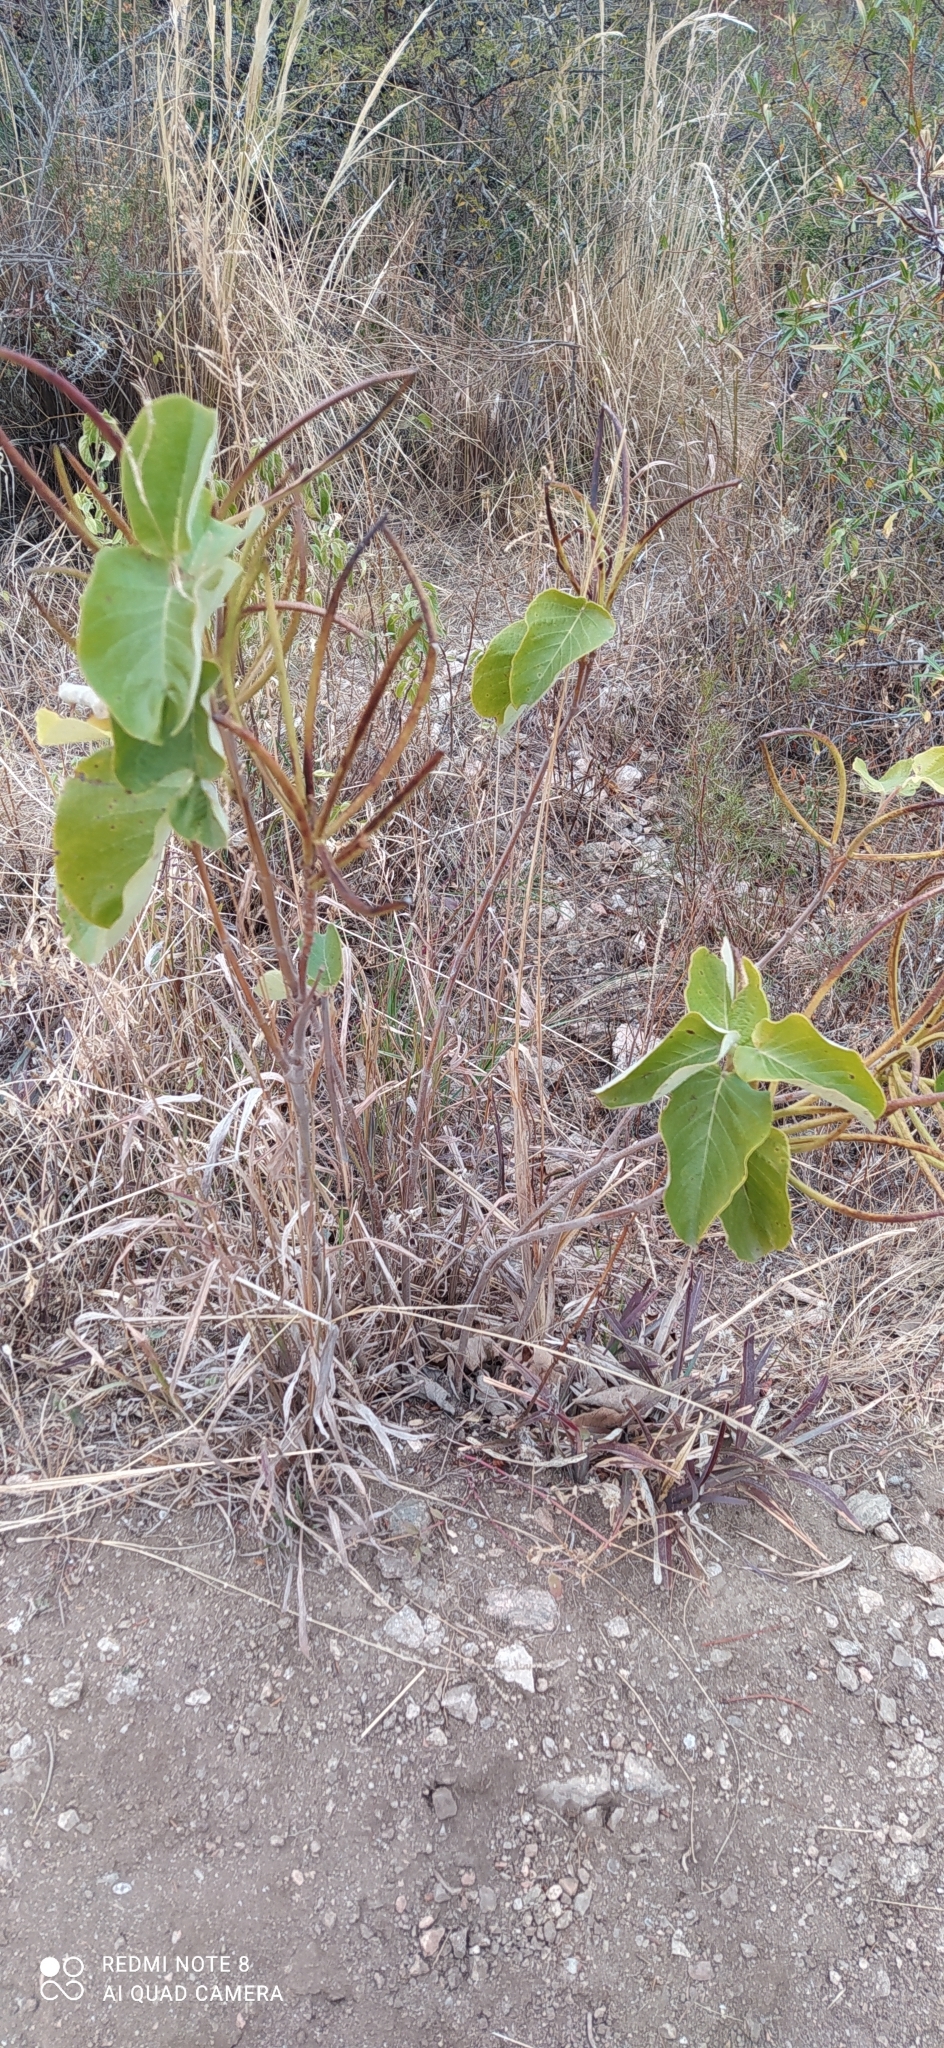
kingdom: Plantae
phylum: Tracheophyta
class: Magnoliopsida
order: Gentianales
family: Apocynaceae
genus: Mandevilla
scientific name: Mandevilla pentlandiana
